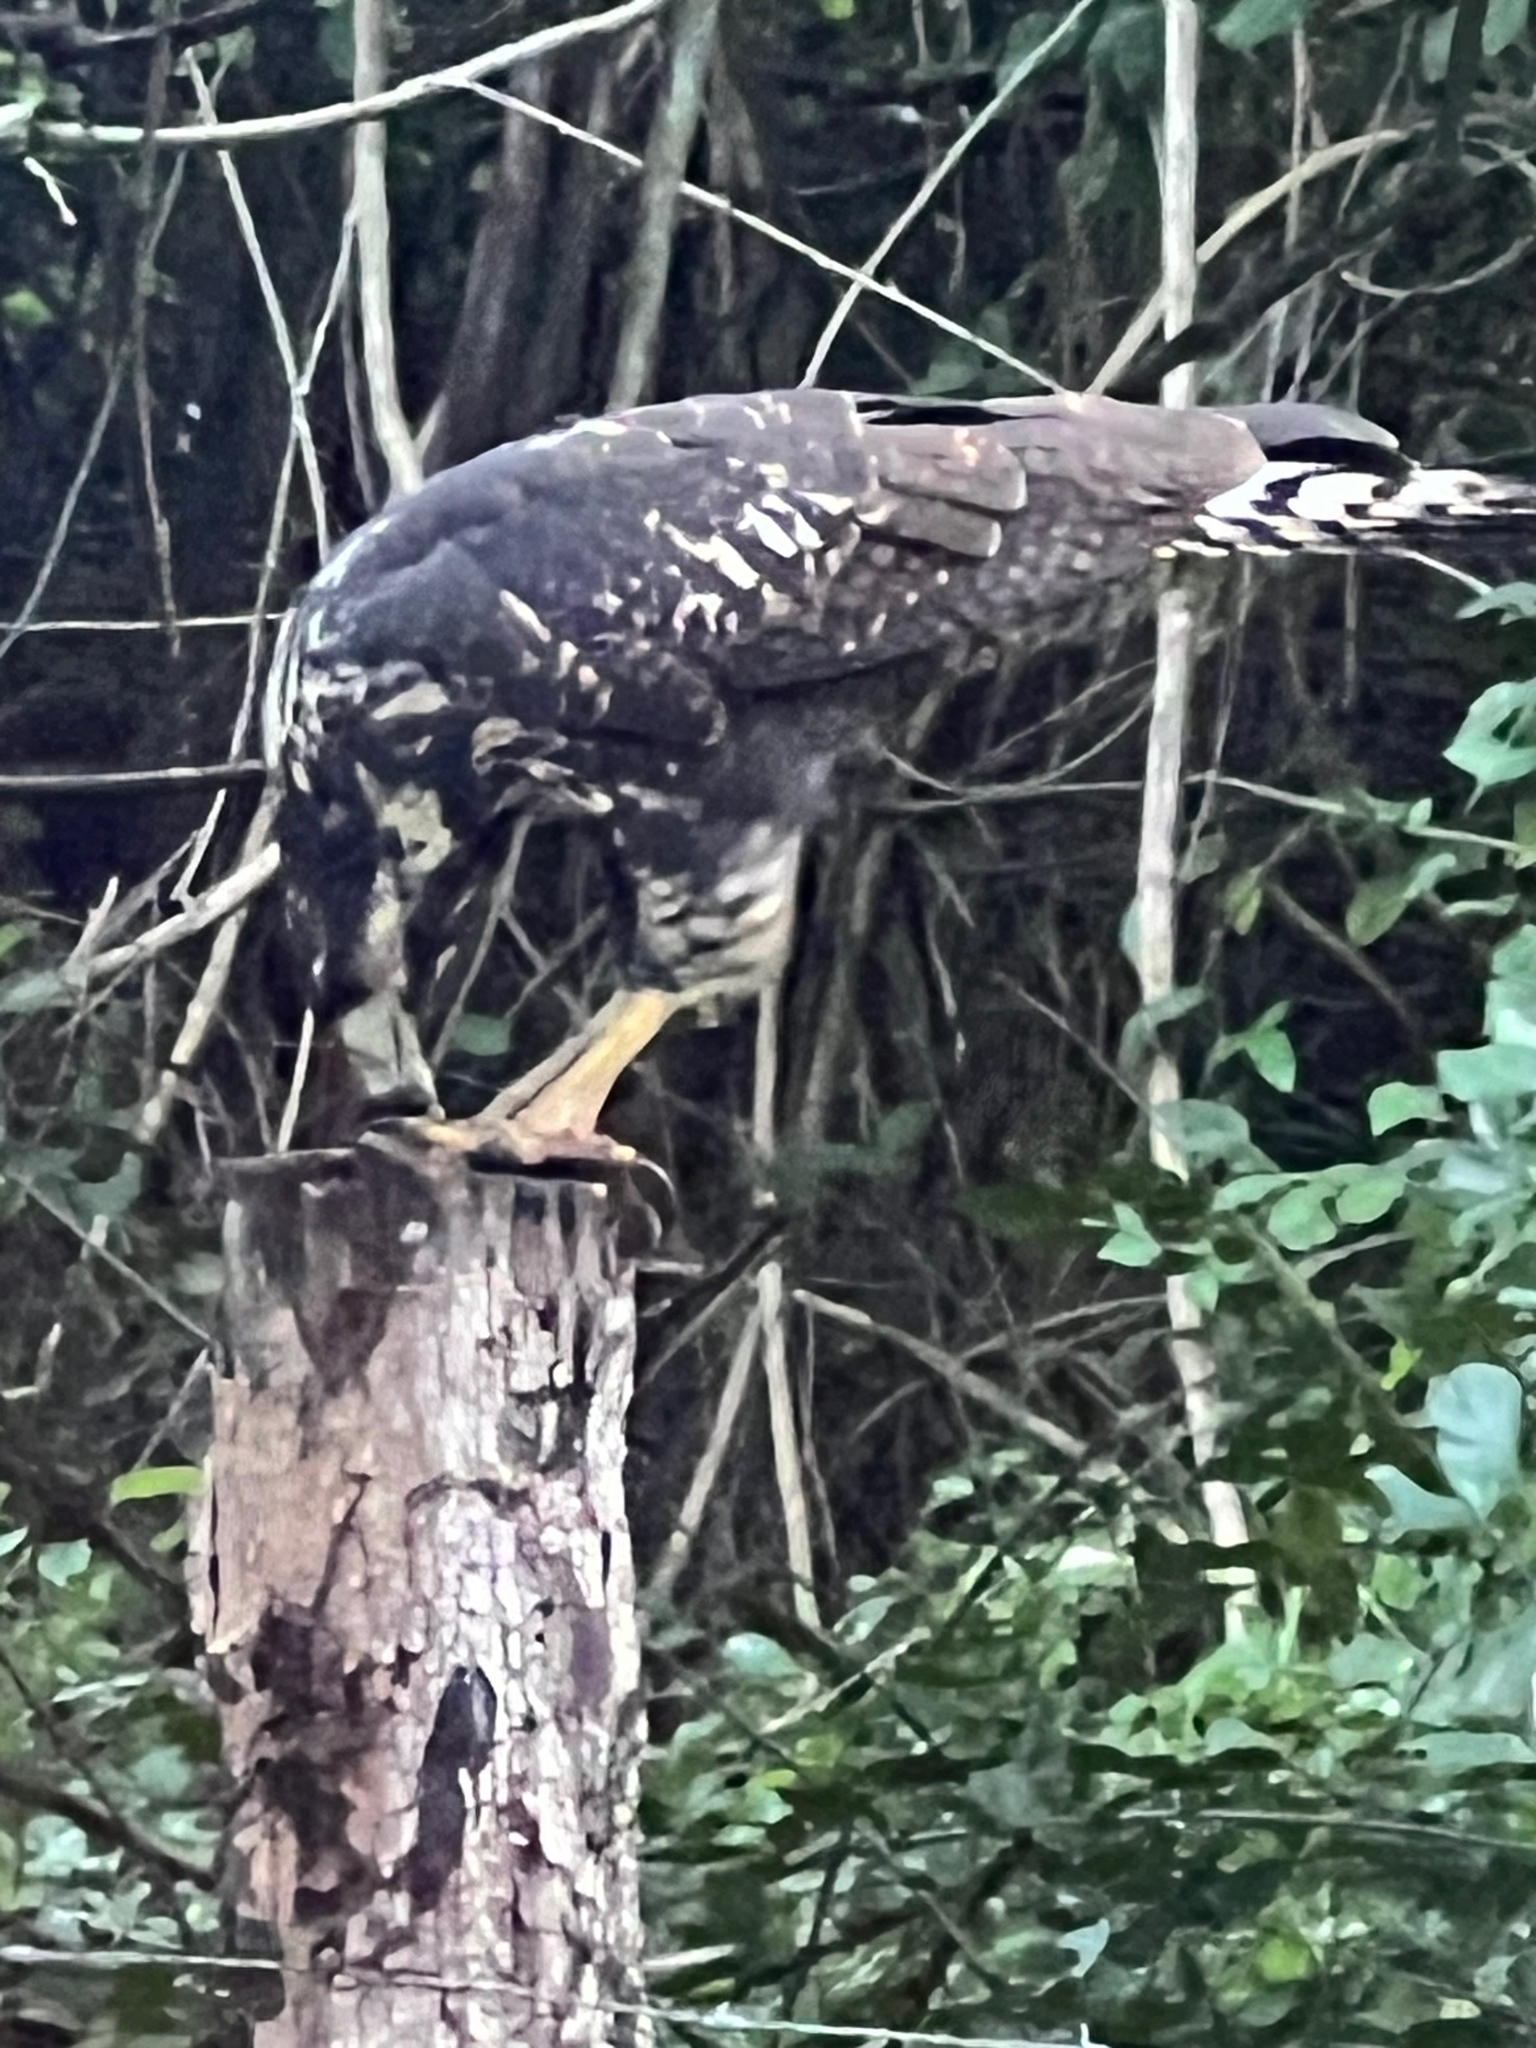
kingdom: Animalia
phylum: Chordata
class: Aves
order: Accipitriformes
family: Accipitridae
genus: Buteogallus
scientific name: Buteogallus anthracinus
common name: Common black hawk
